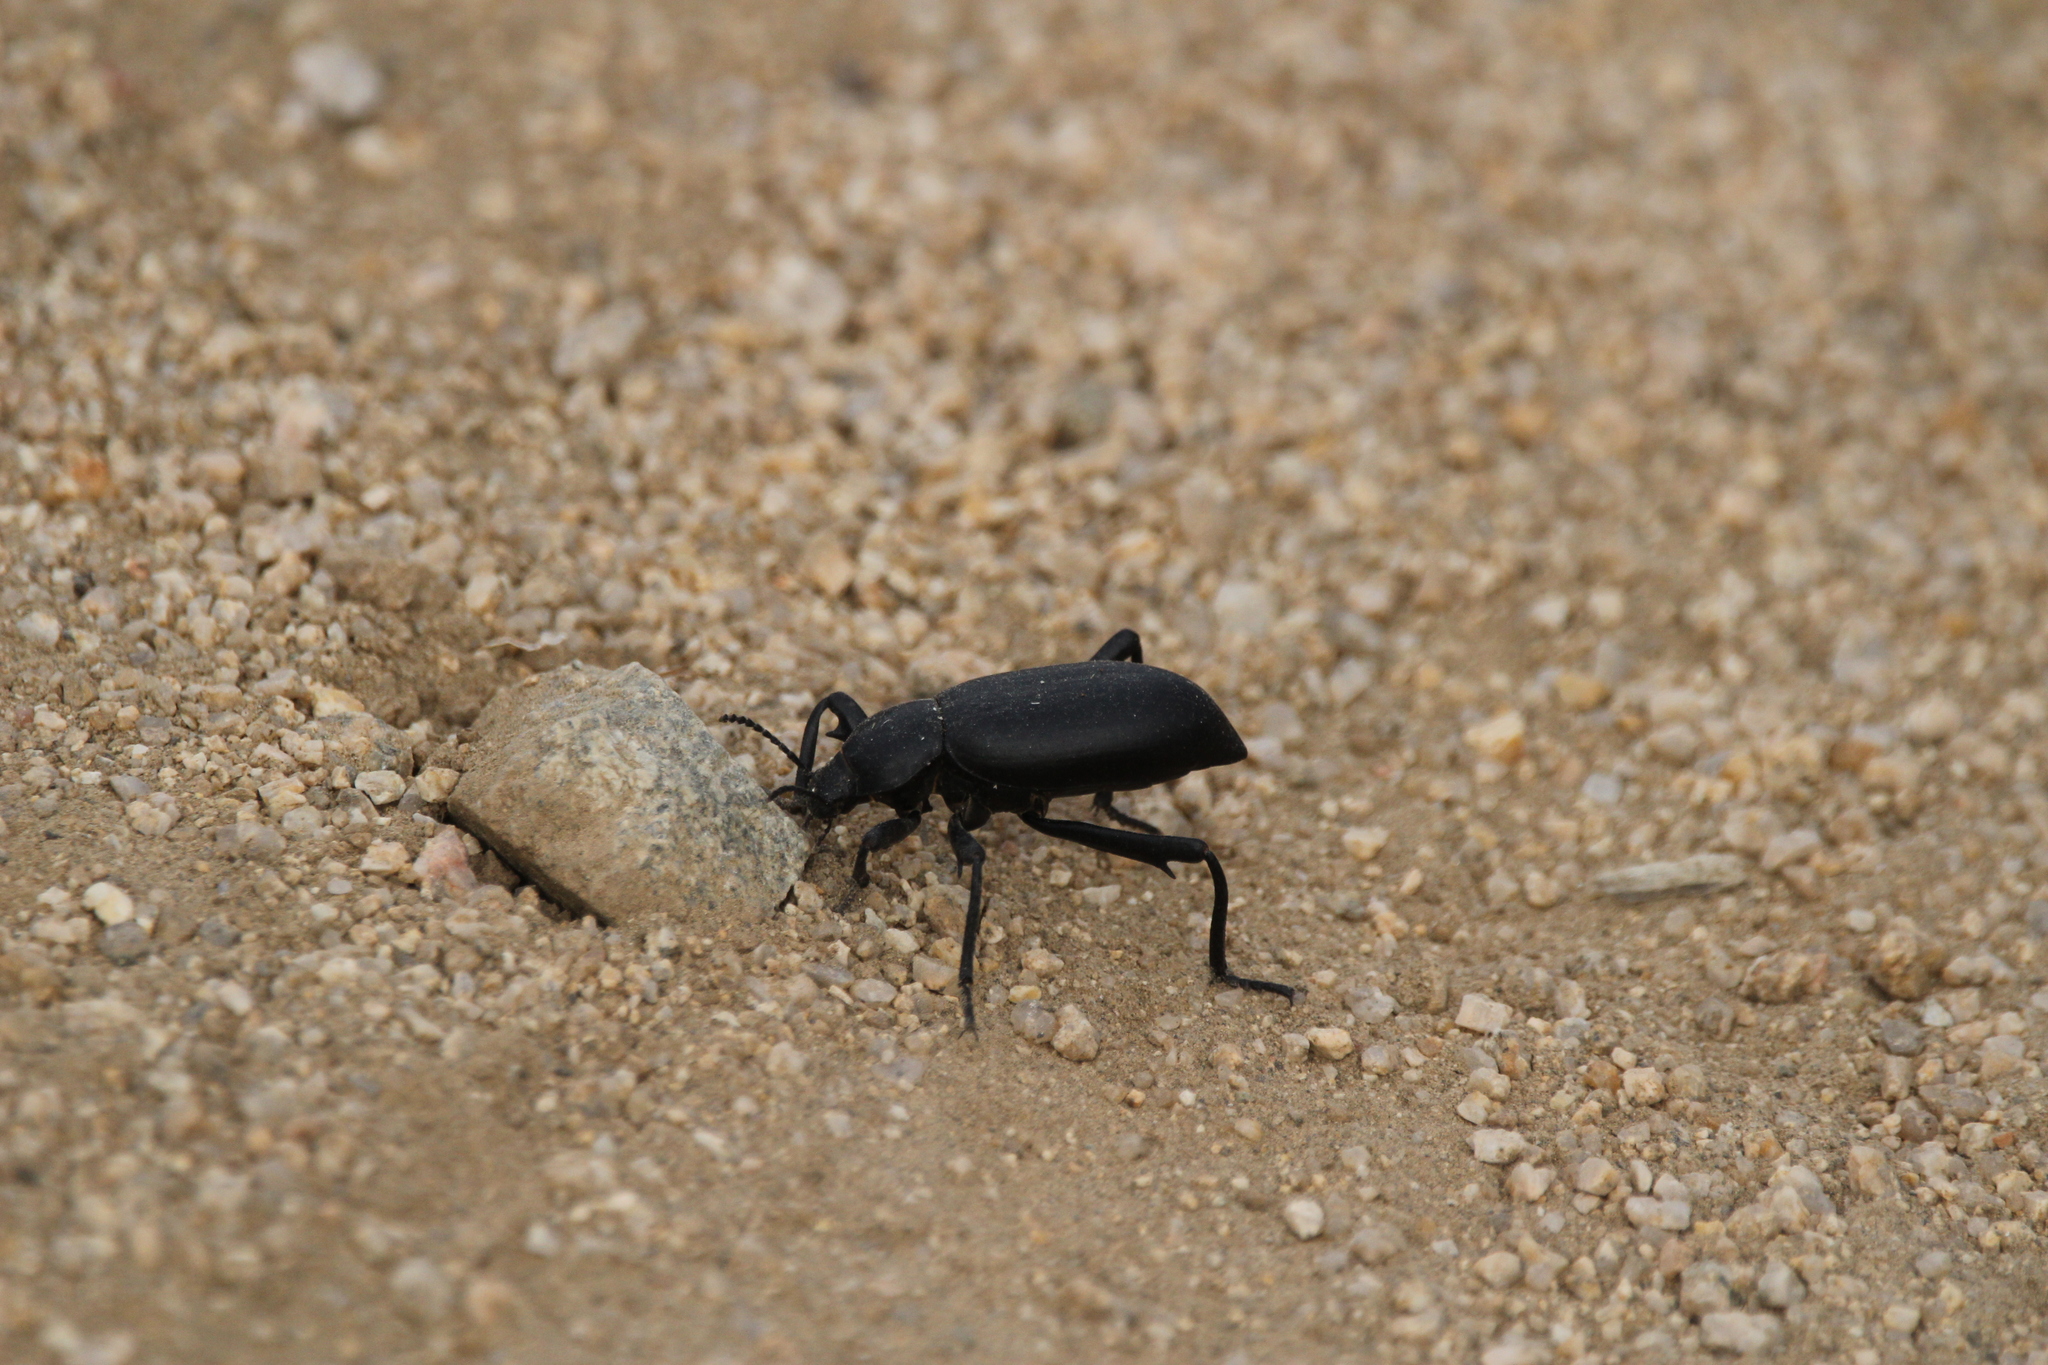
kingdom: Animalia
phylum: Arthropoda
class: Insecta
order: Coleoptera
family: Tenebrionidae
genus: Eleodes
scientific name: Eleodes armata
